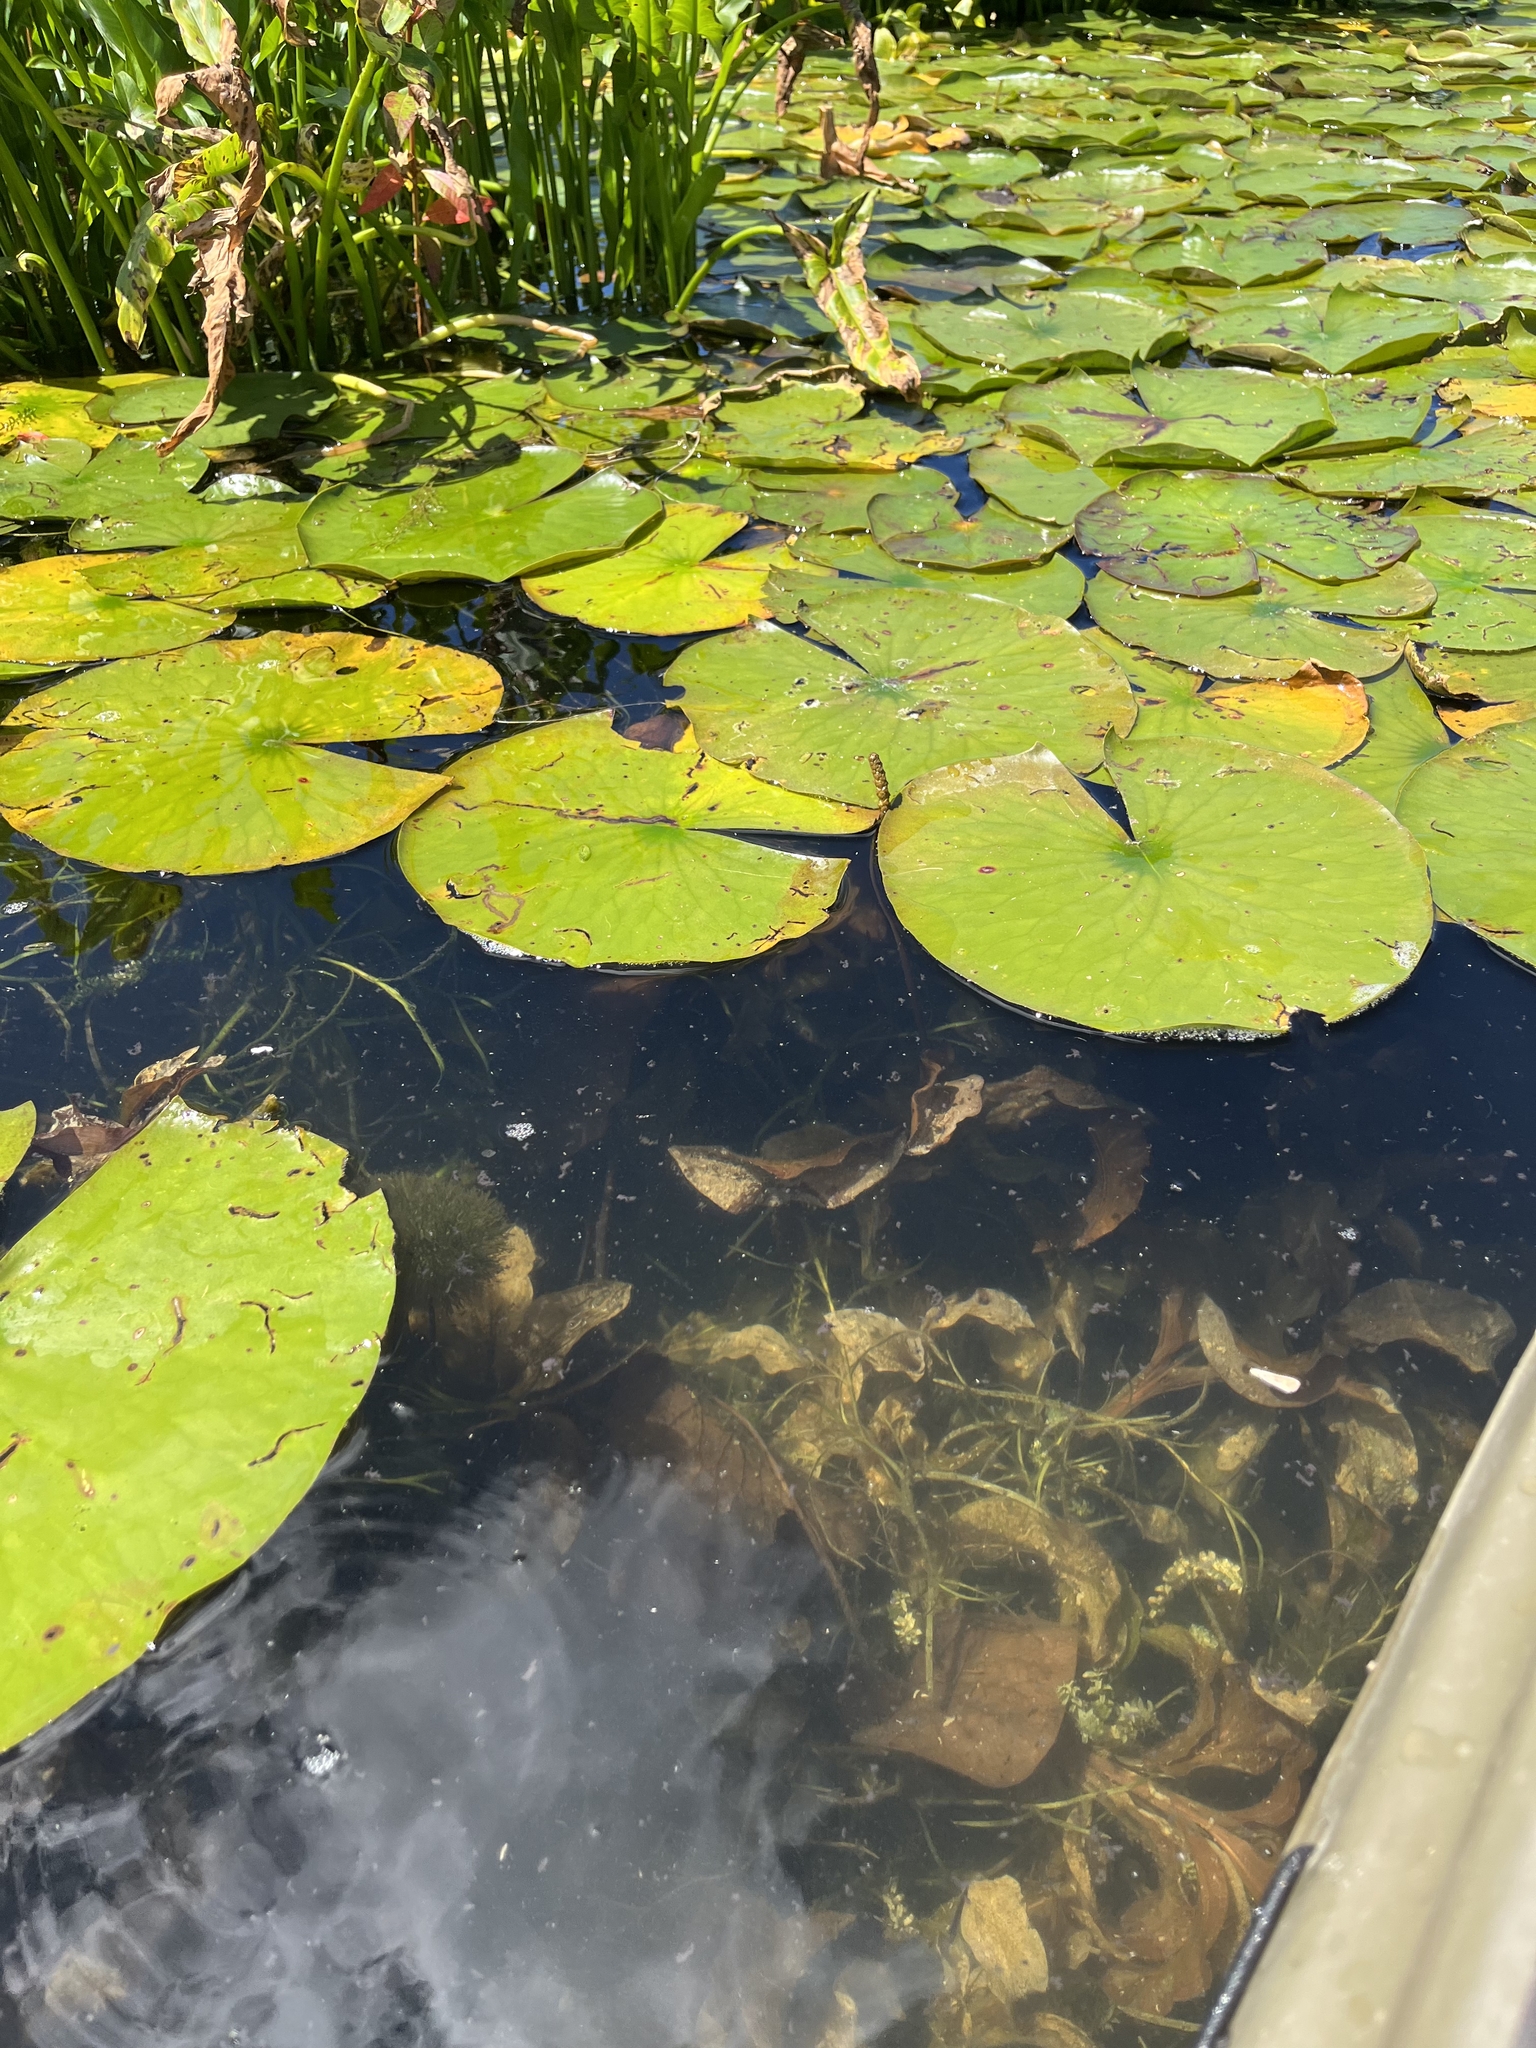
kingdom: Plantae
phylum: Tracheophyta
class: Liliopsida
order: Alismatales
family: Potamogetonaceae
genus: Potamogeton
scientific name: Potamogeton amplifolius
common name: Broad-leaved pondweed
